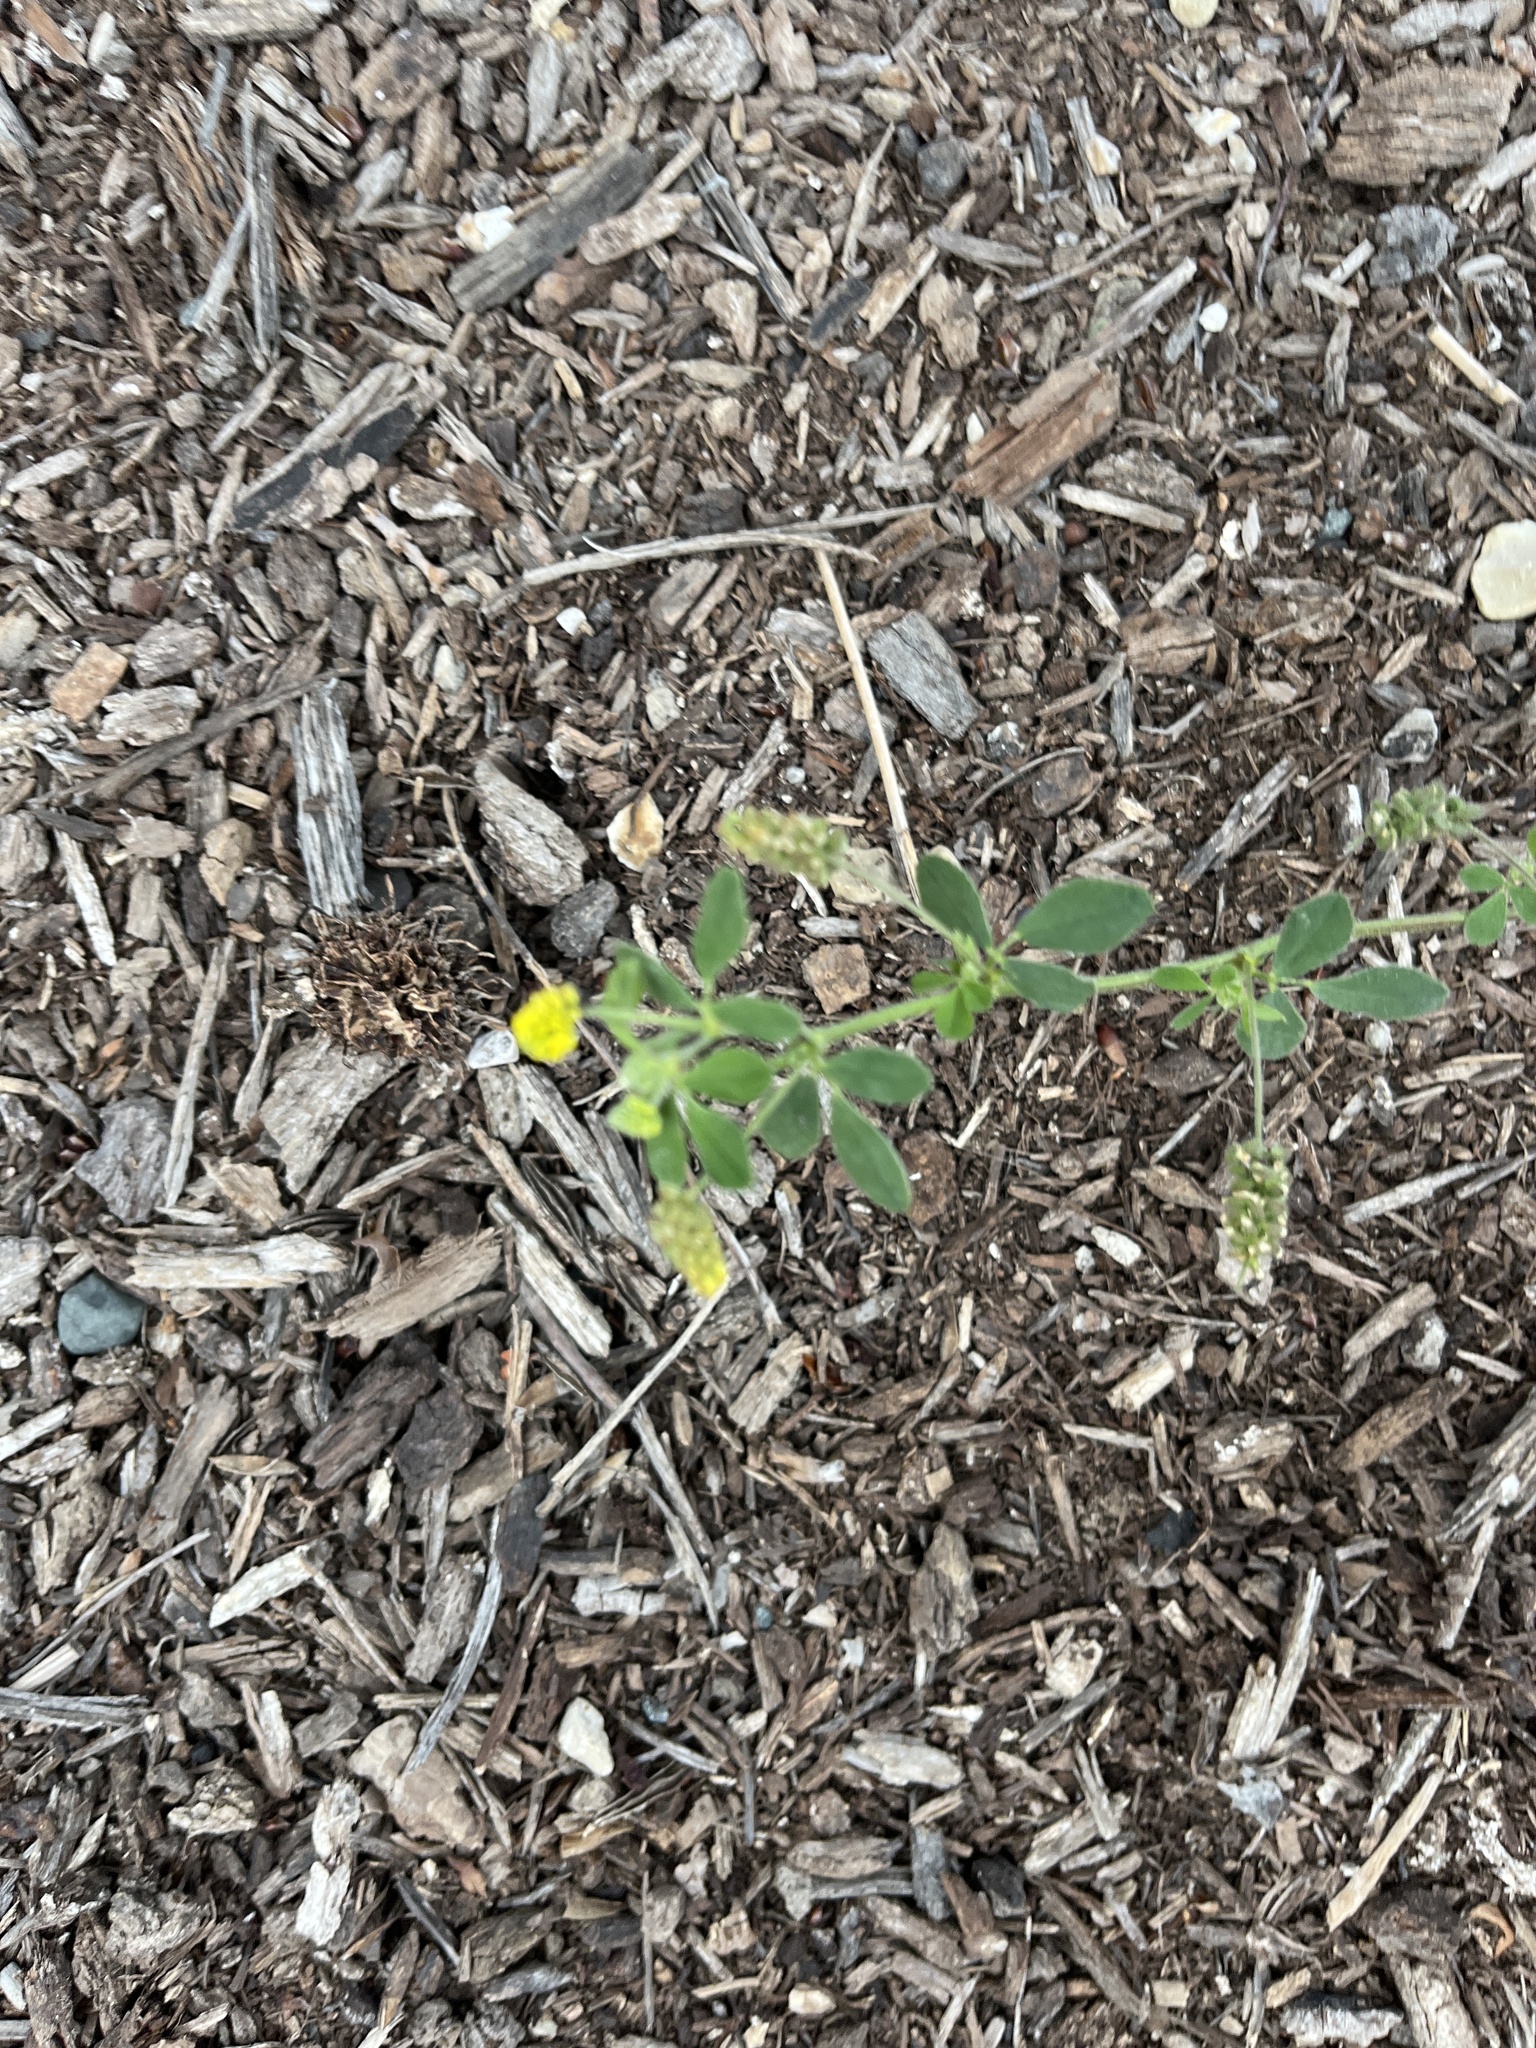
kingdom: Plantae
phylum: Tracheophyta
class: Magnoliopsida
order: Fabales
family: Fabaceae
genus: Medicago
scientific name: Medicago lupulina
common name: Black medick
